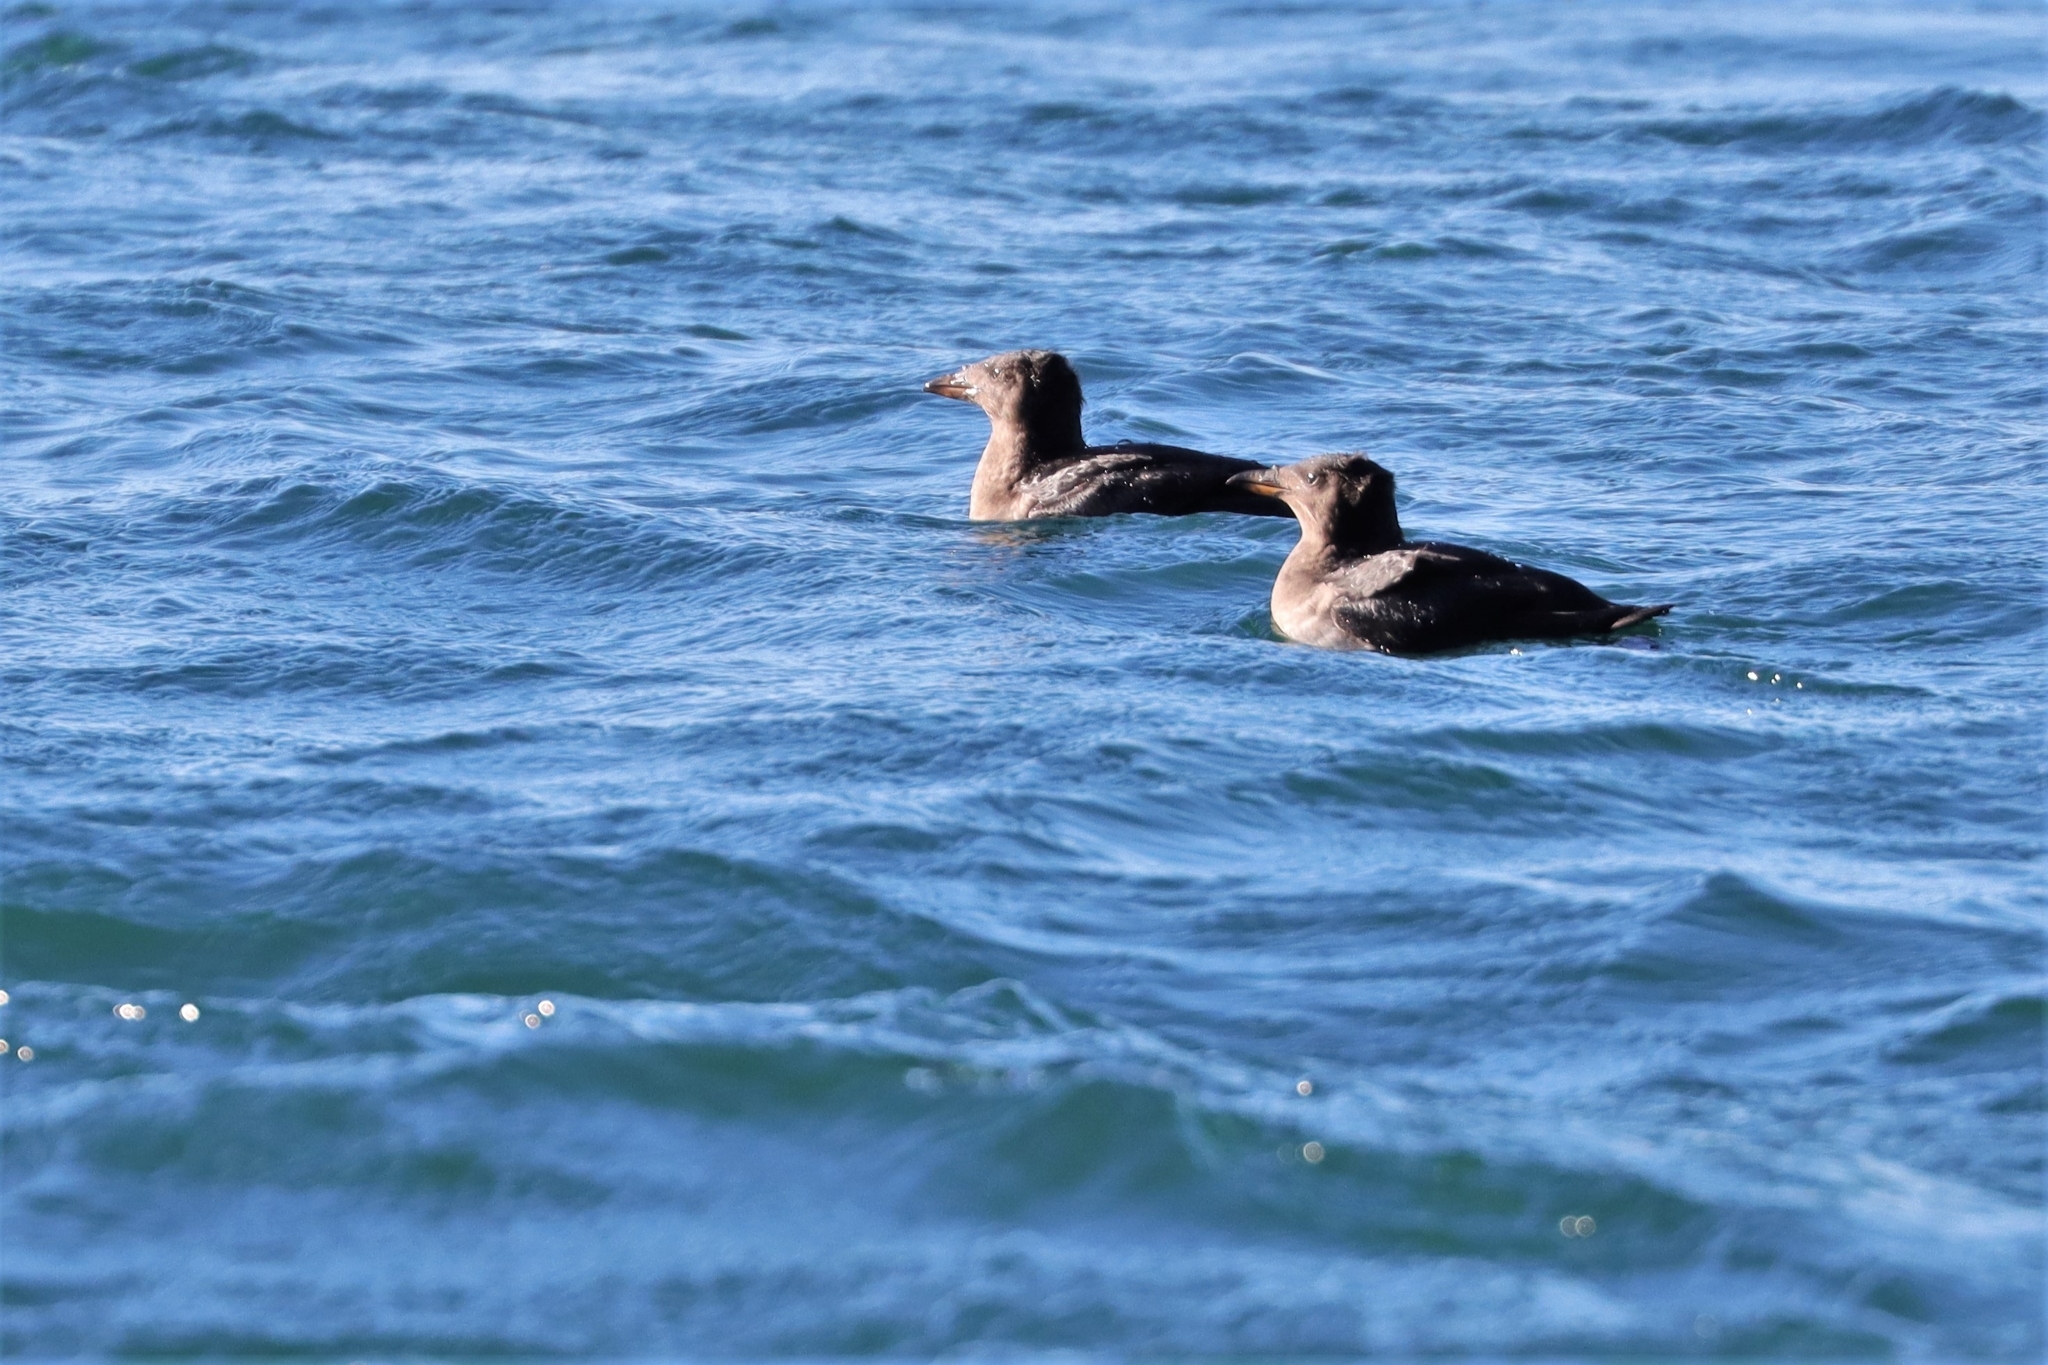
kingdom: Animalia
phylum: Chordata
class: Aves
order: Charadriiformes
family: Alcidae
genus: Cerorhinca
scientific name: Cerorhinca monocerata
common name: Rhinoceros auklet
